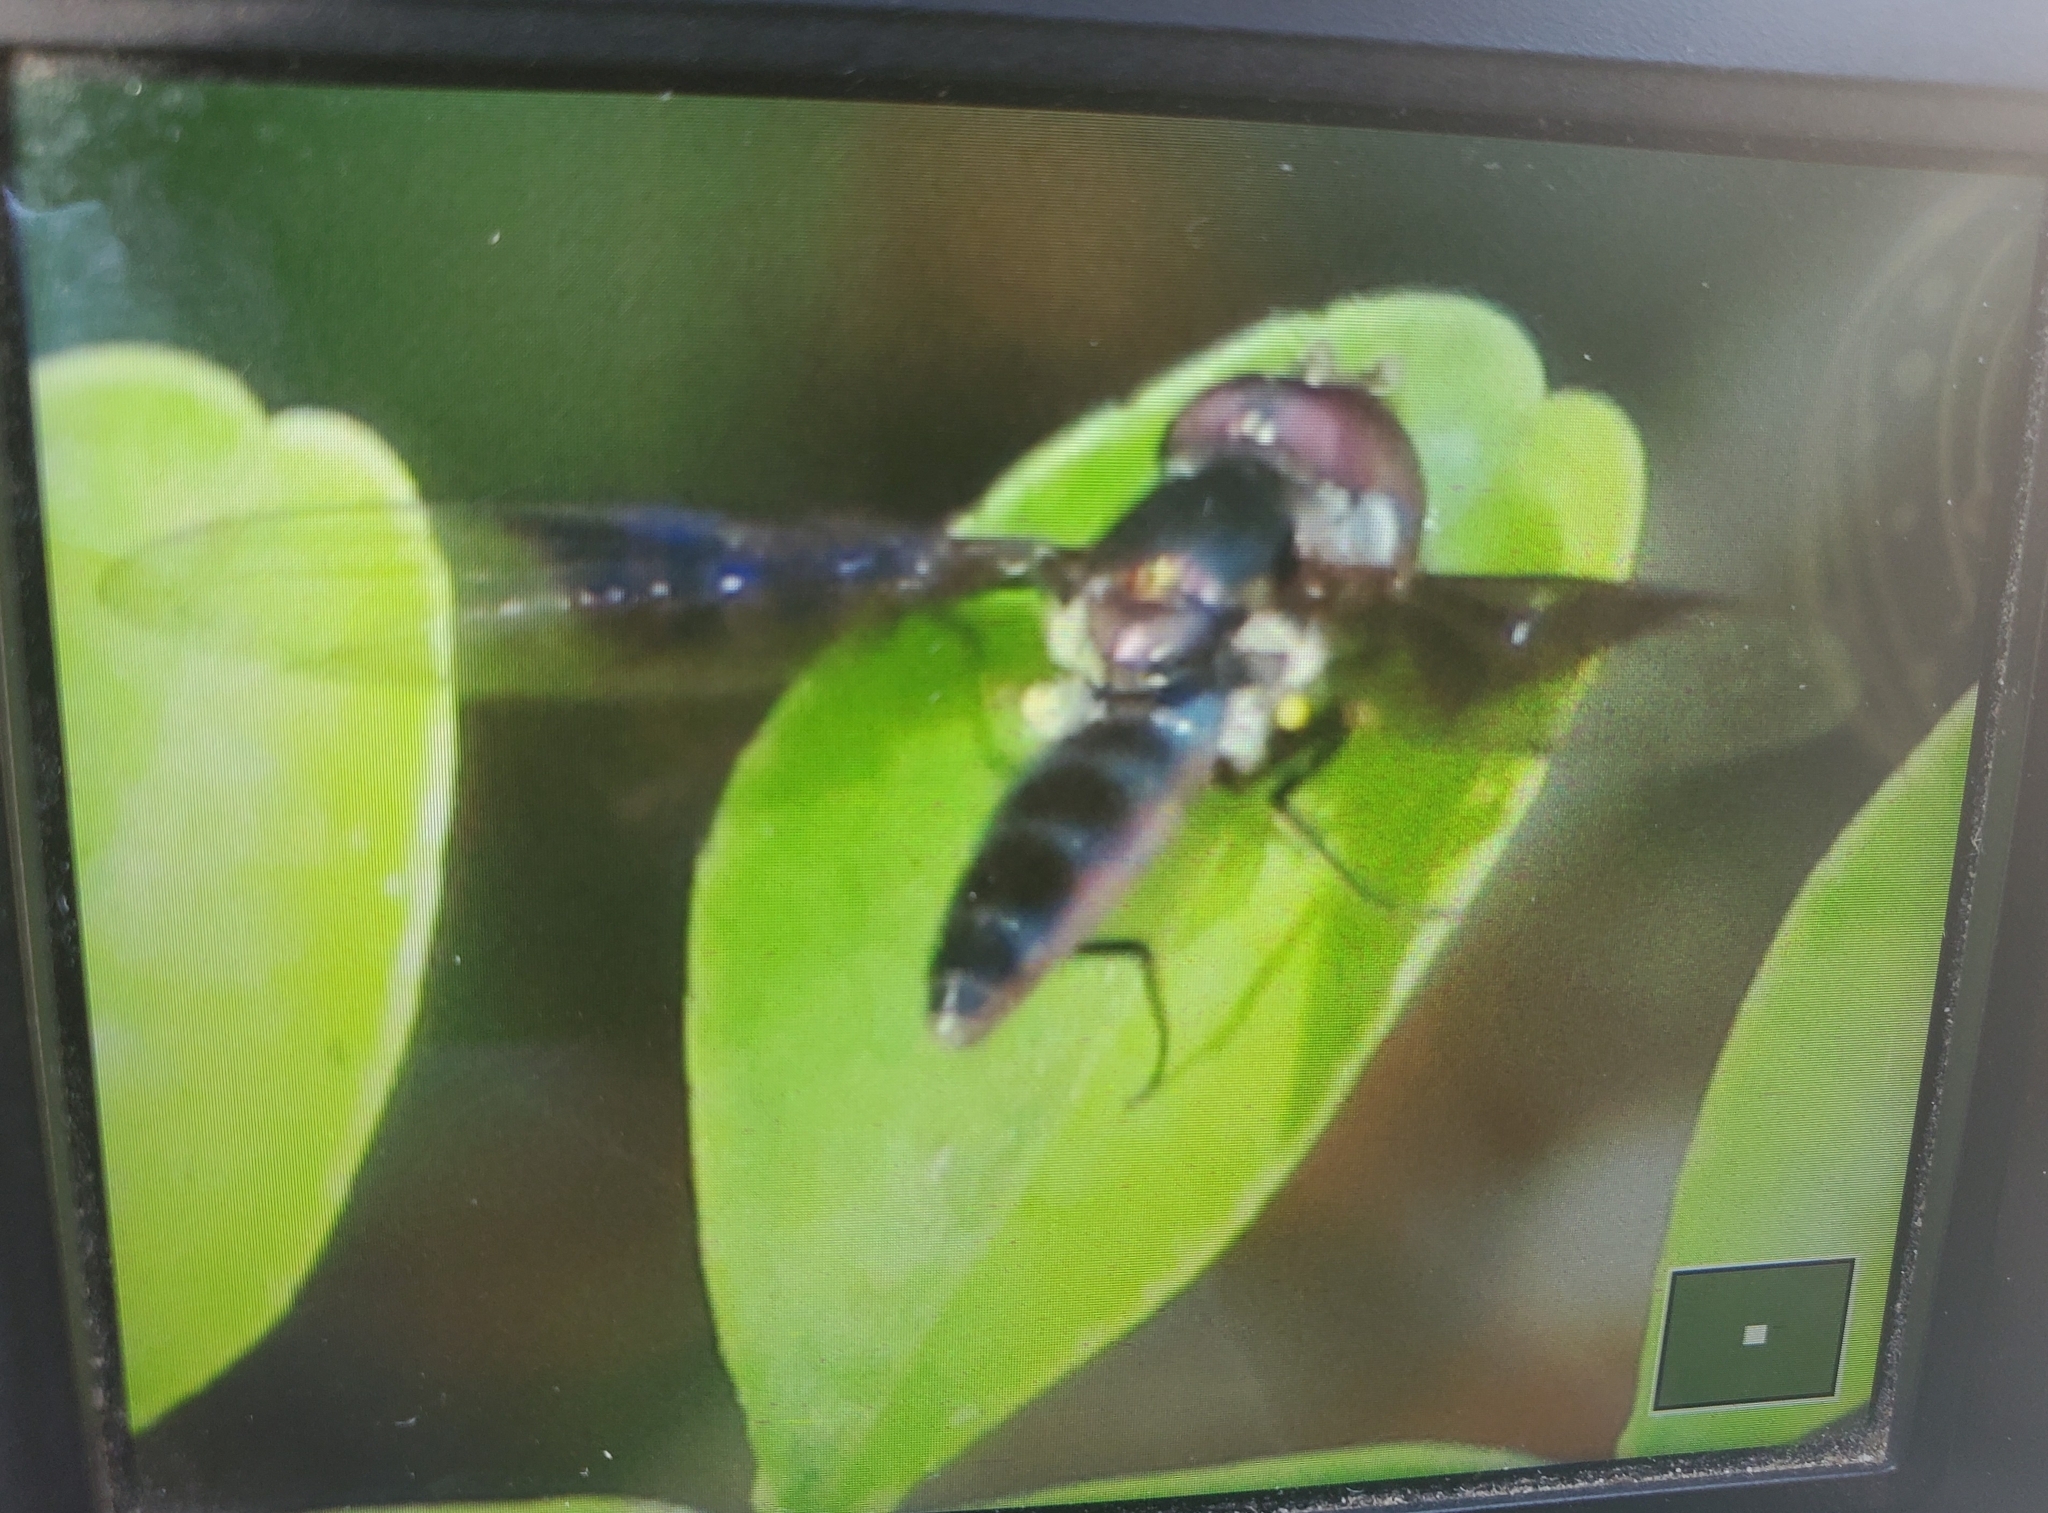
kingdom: Animalia
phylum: Arthropoda
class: Insecta
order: Diptera
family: Syrphidae
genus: Ocyptamus
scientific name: Ocyptamus dimidiatus
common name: Syrphid fly
